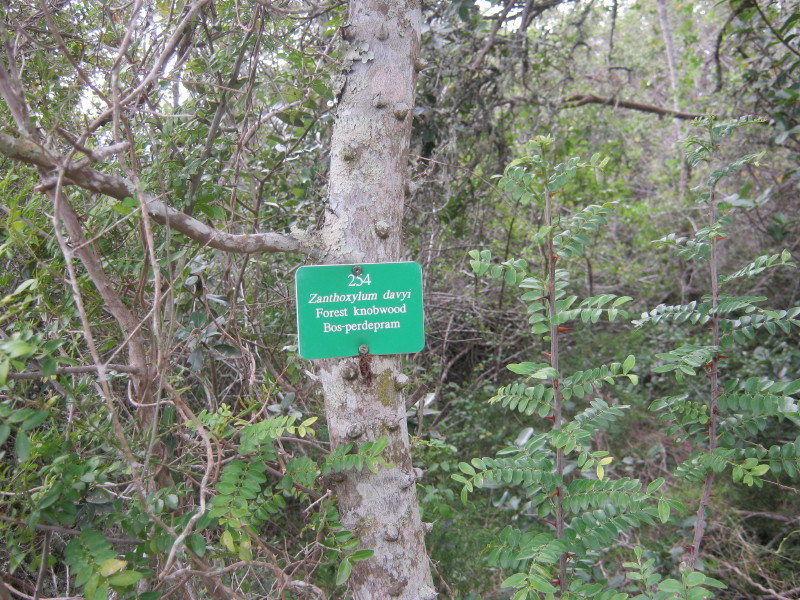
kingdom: Plantae
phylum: Tracheophyta
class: Magnoliopsida
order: Sapindales
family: Rutaceae
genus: Zanthoxylum
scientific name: Zanthoxylum capense
